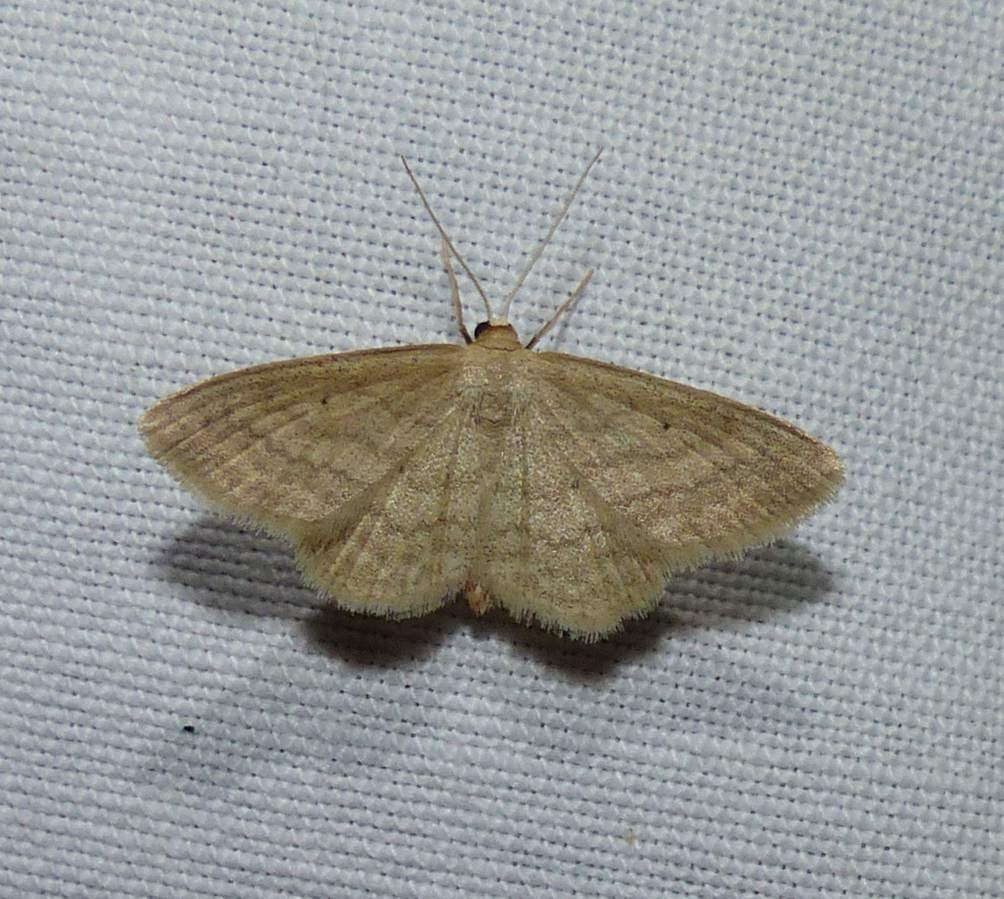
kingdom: Animalia
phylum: Arthropoda
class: Insecta
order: Lepidoptera
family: Geometridae
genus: Scopula
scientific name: Scopula inductata
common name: Soft-lined wave
